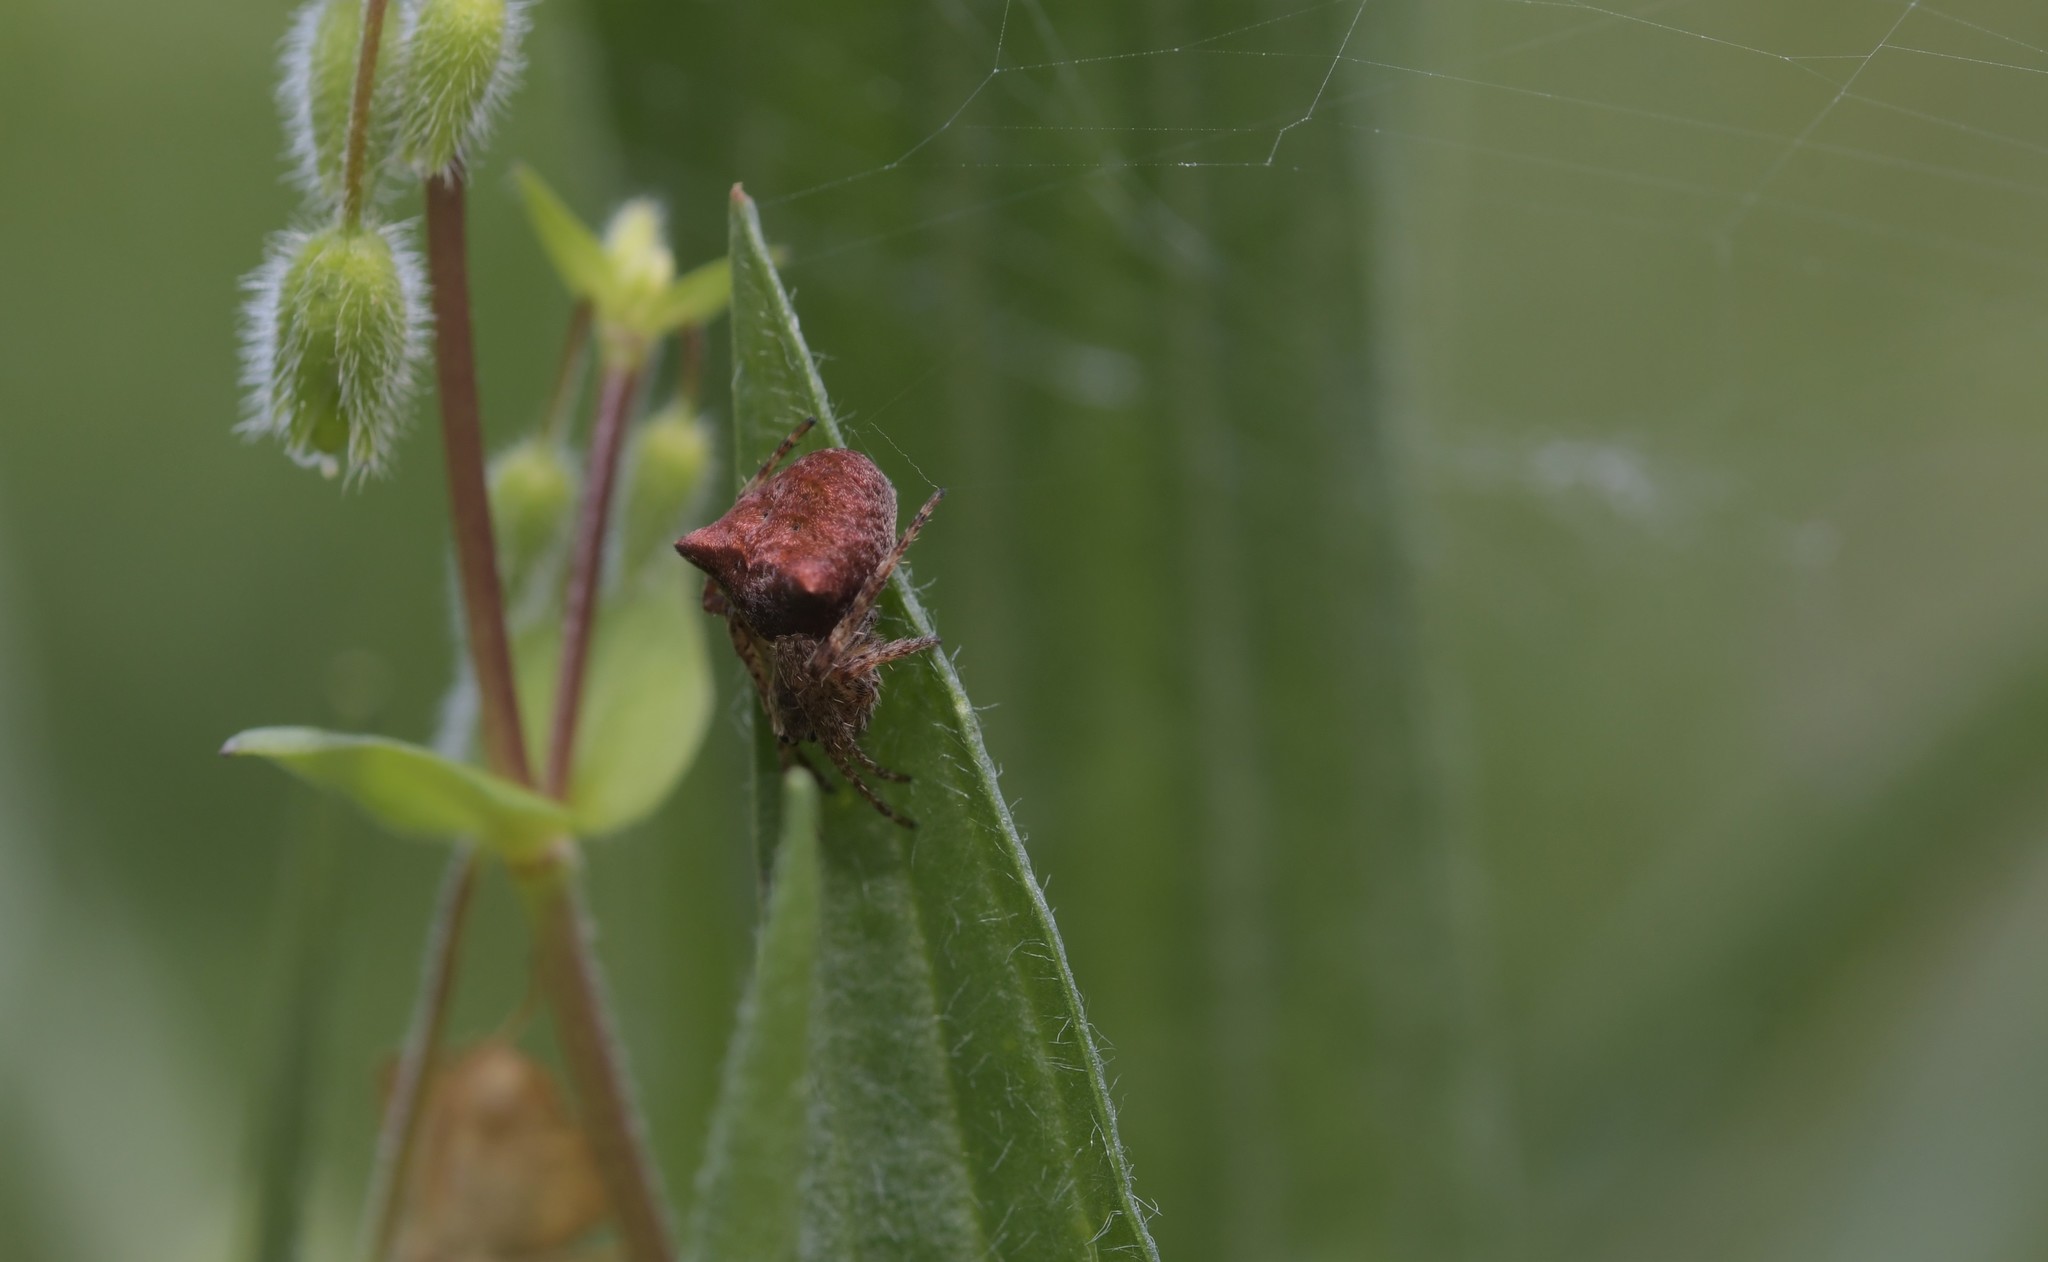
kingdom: Animalia
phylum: Arthropoda
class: Arachnida
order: Araneae
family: Araneidae
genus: Araneus
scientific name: Araneus angulatus
